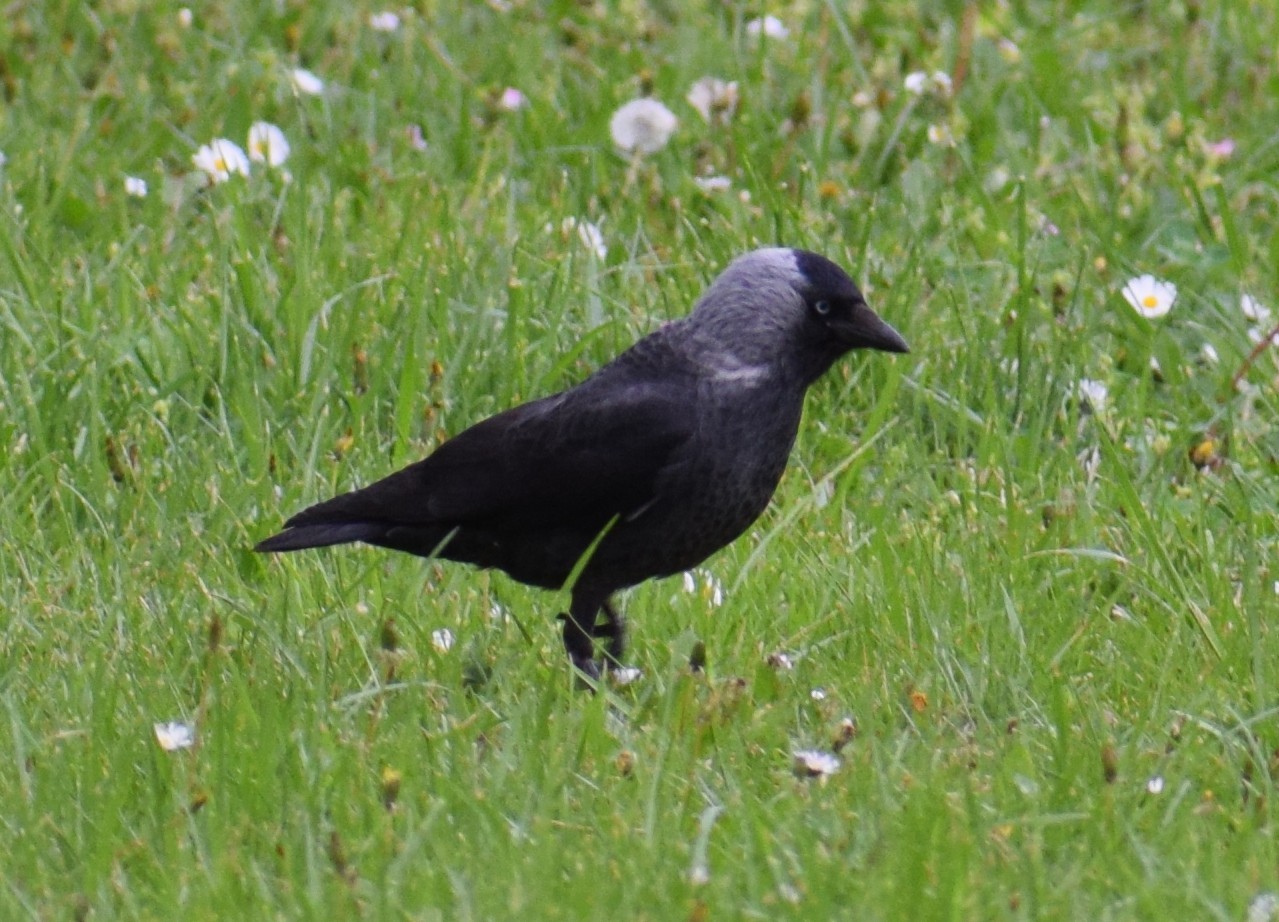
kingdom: Animalia
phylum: Chordata
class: Aves
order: Passeriformes
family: Corvidae
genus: Coloeus
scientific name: Coloeus monedula
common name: Western jackdaw
